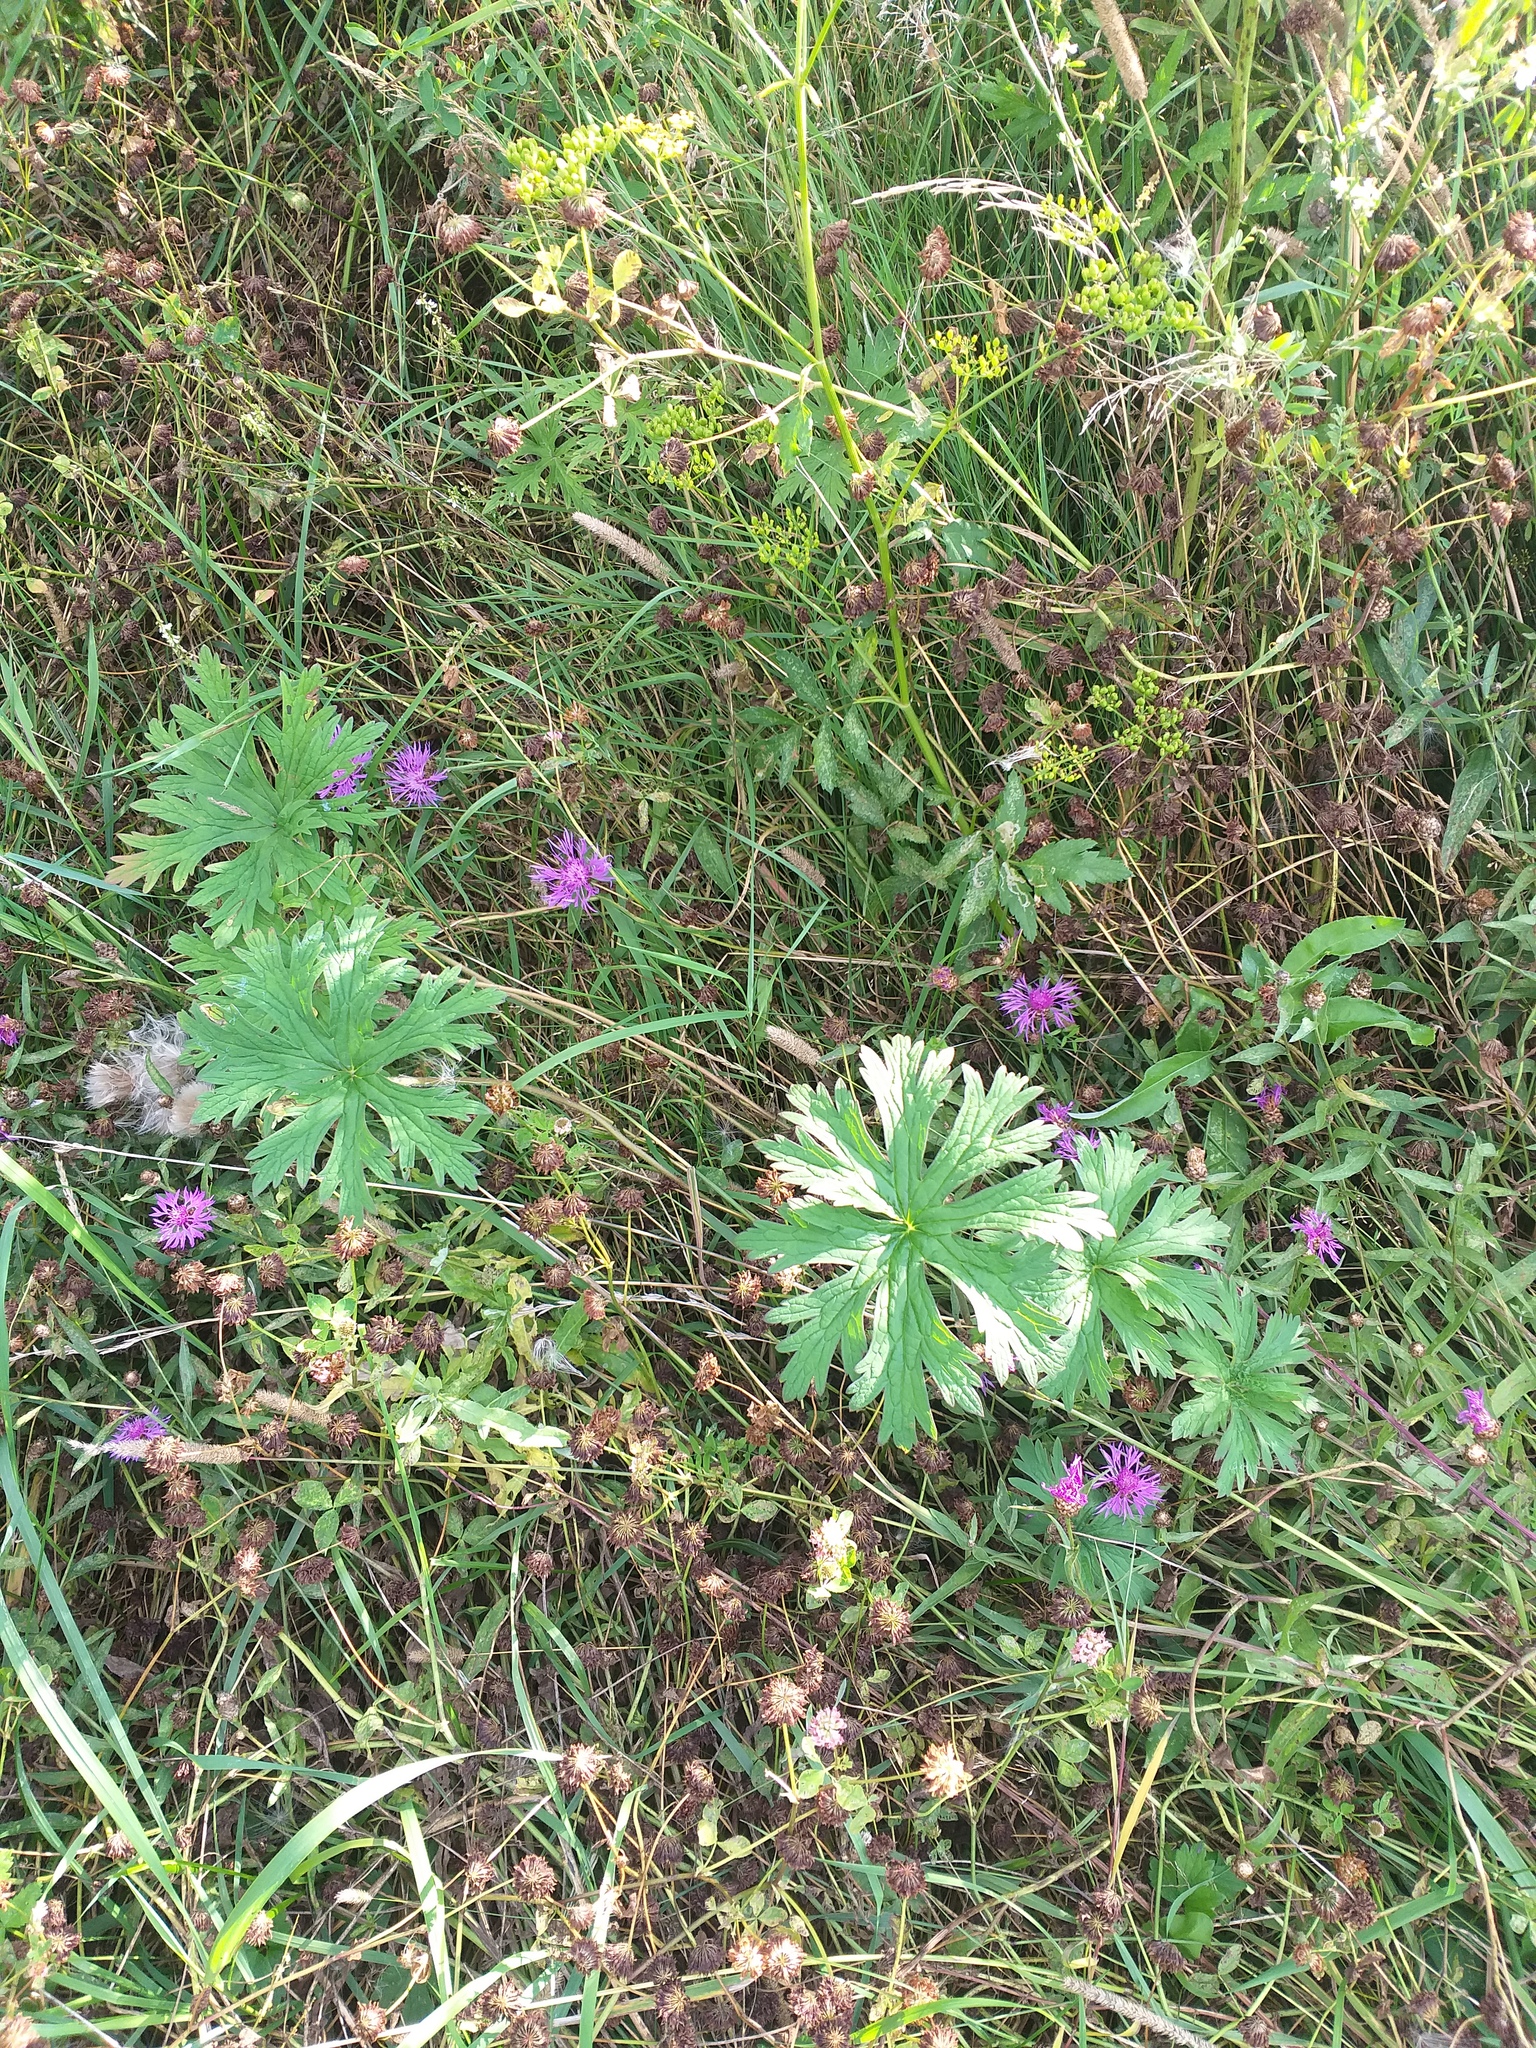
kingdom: Plantae
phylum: Tracheophyta
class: Magnoliopsida
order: Geraniales
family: Geraniaceae
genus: Geranium
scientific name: Geranium pratense
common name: Meadow crane's-bill
